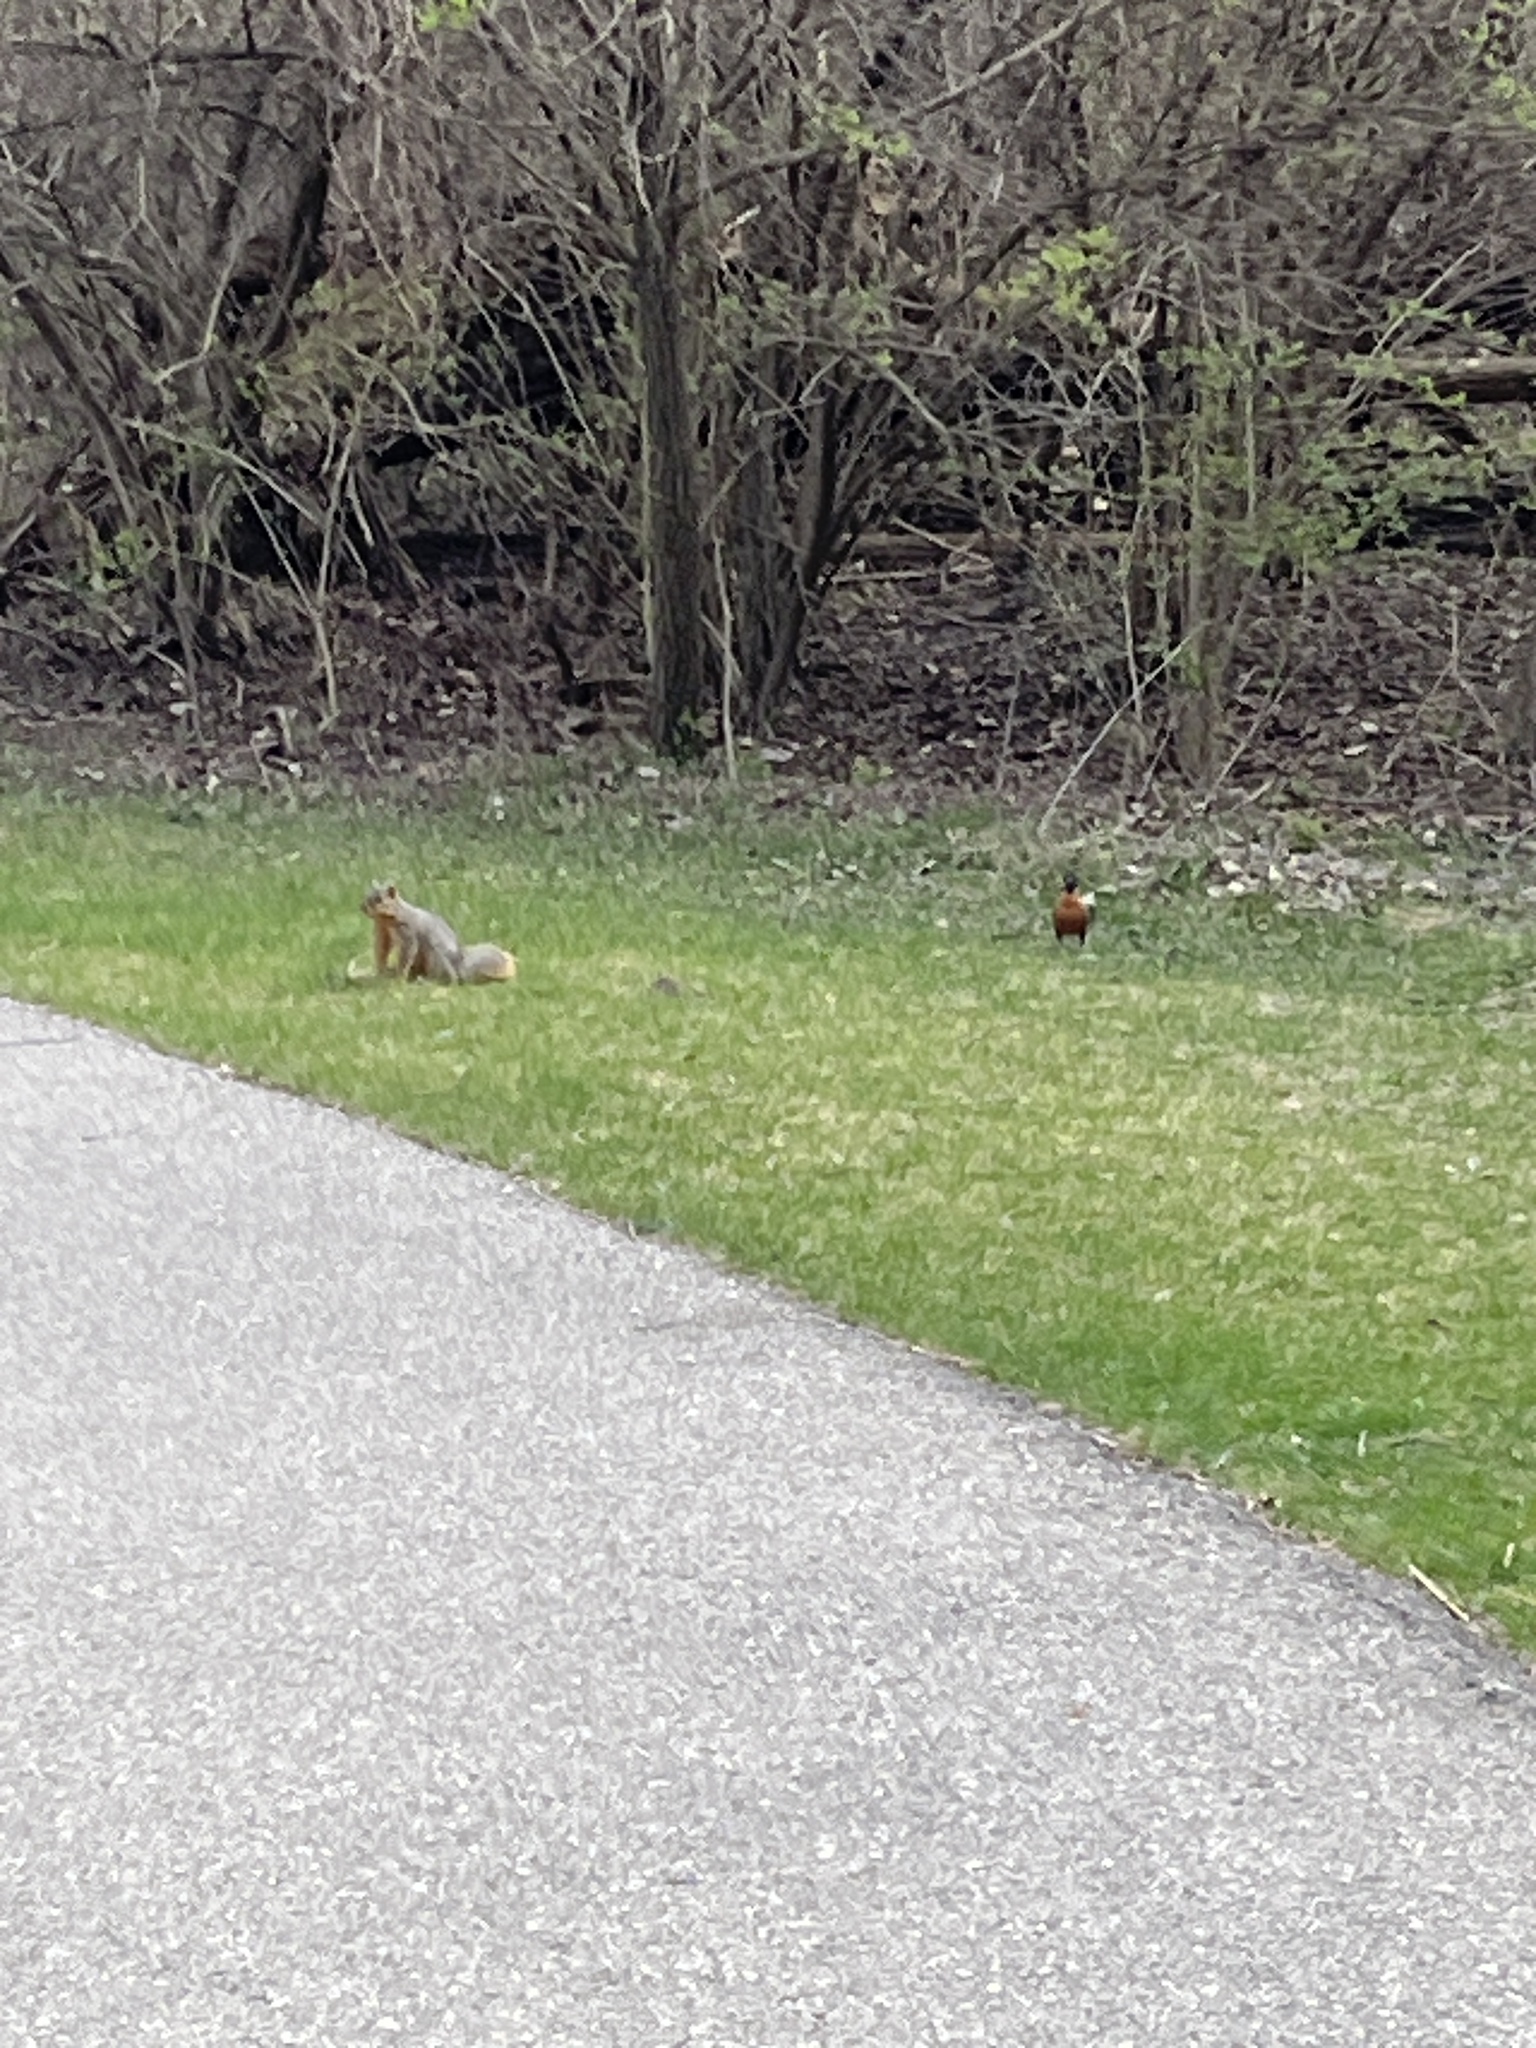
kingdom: Animalia
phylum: Chordata
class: Mammalia
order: Rodentia
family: Sciuridae
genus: Sciurus
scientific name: Sciurus niger
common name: Fox squirrel
